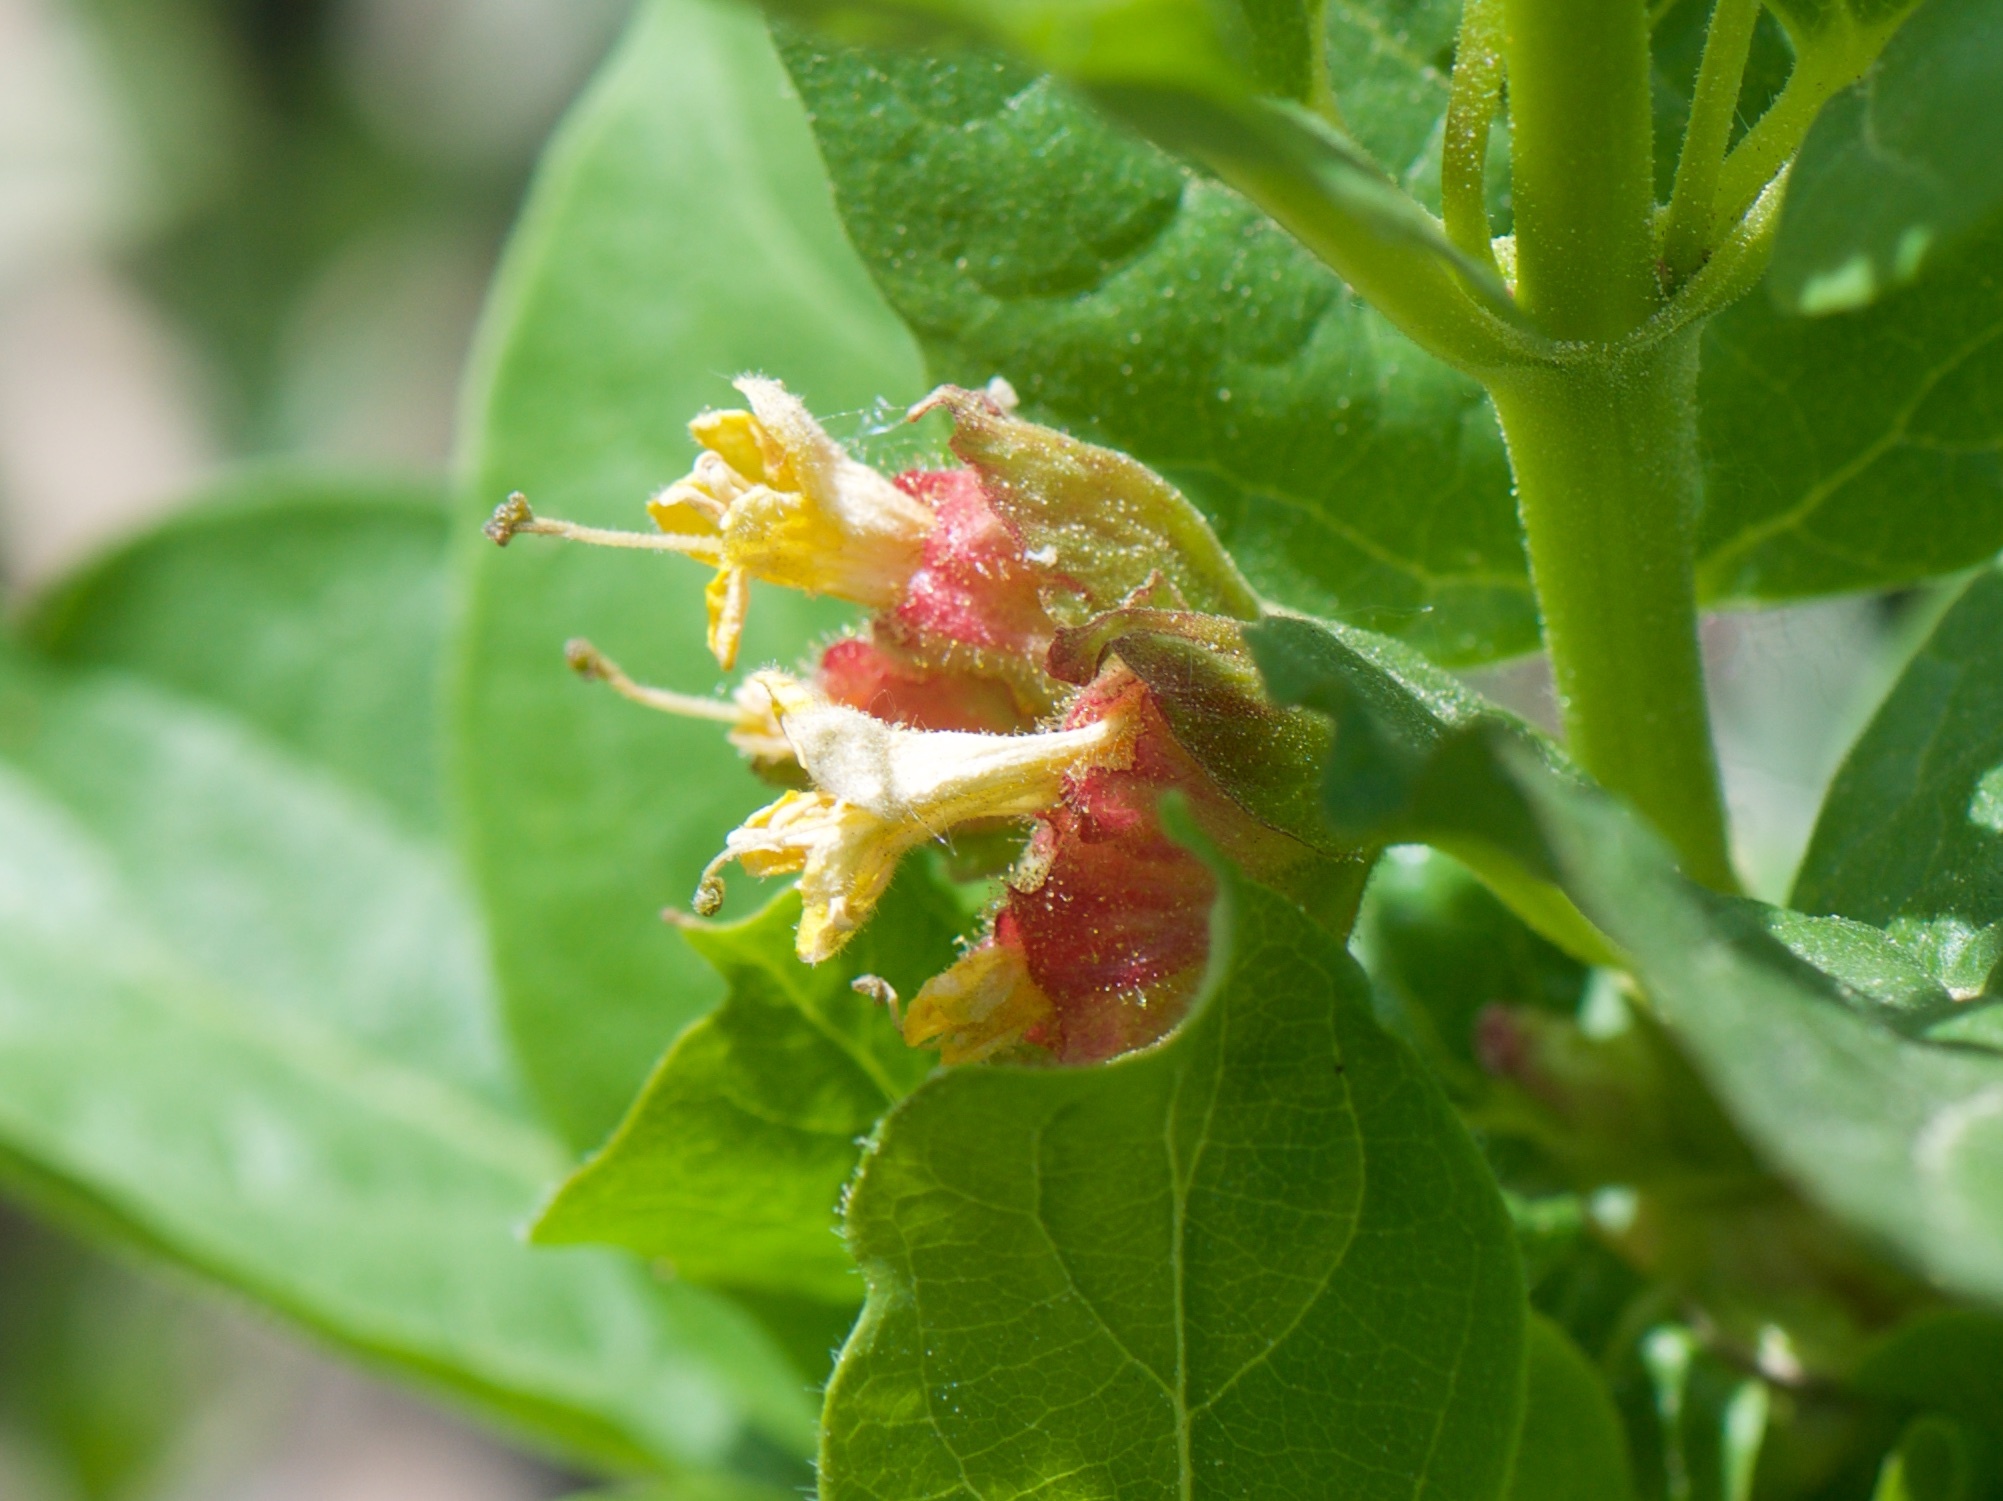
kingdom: Plantae
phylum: Tracheophyta
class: Magnoliopsida
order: Dipsacales
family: Caprifoliaceae
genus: Lonicera
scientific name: Lonicera involucrata
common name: Californian honeysuckle
